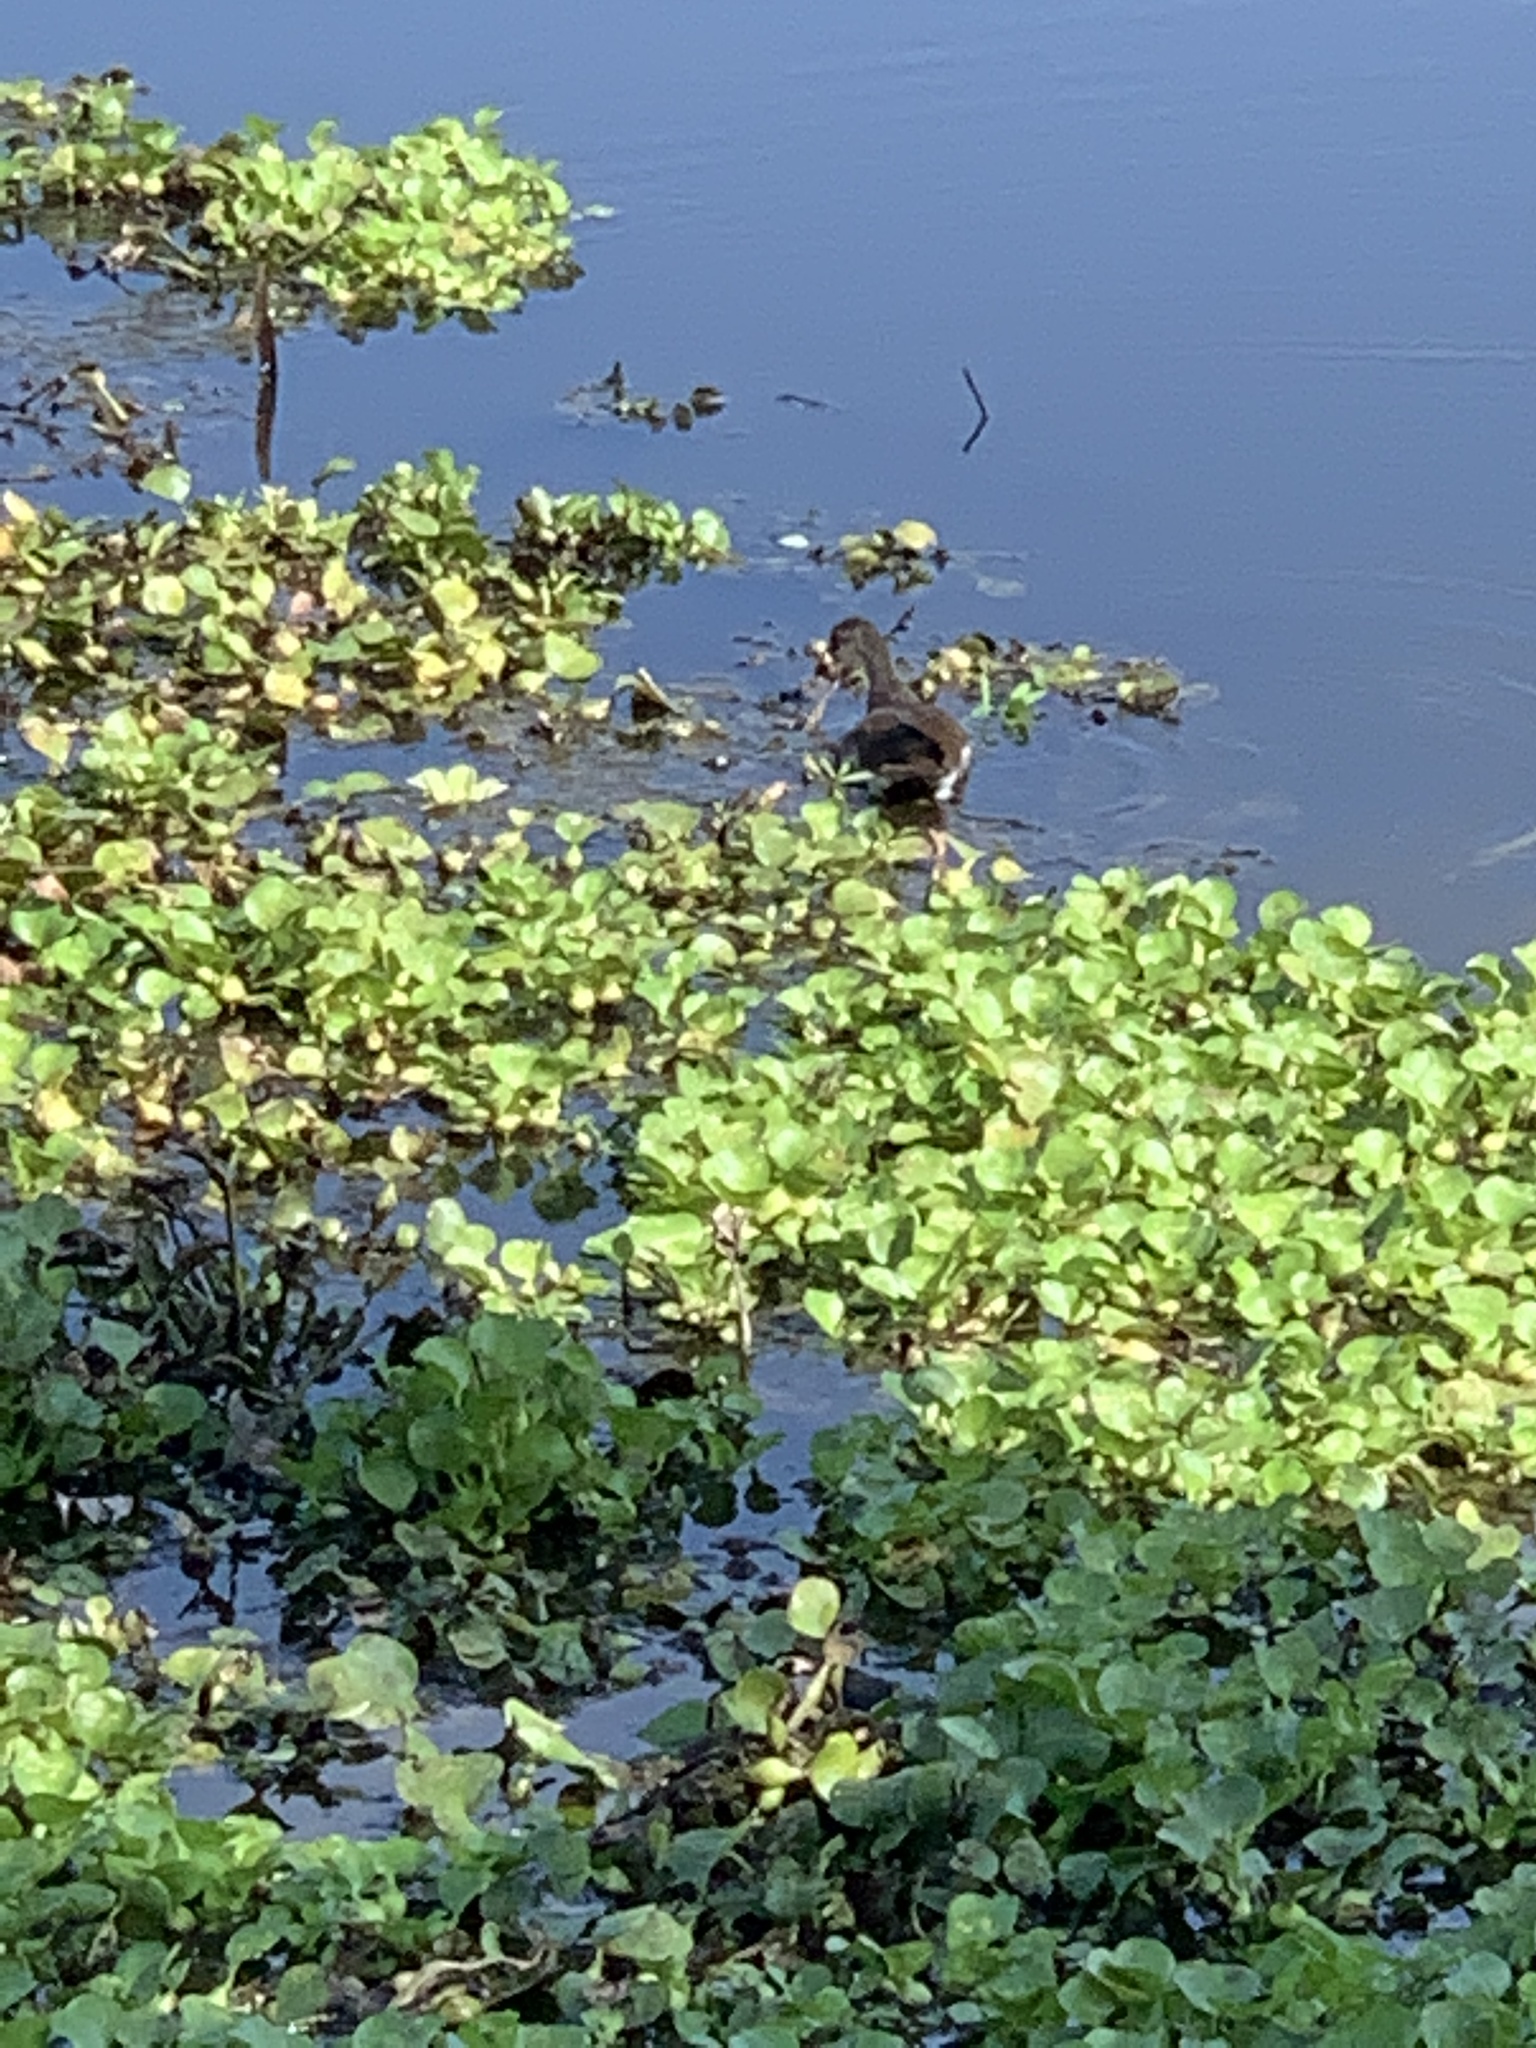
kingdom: Animalia
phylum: Chordata
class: Aves
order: Gruiformes
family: Rallidae
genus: Gallinula
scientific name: Gallinula chloropus
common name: Common moorhen
